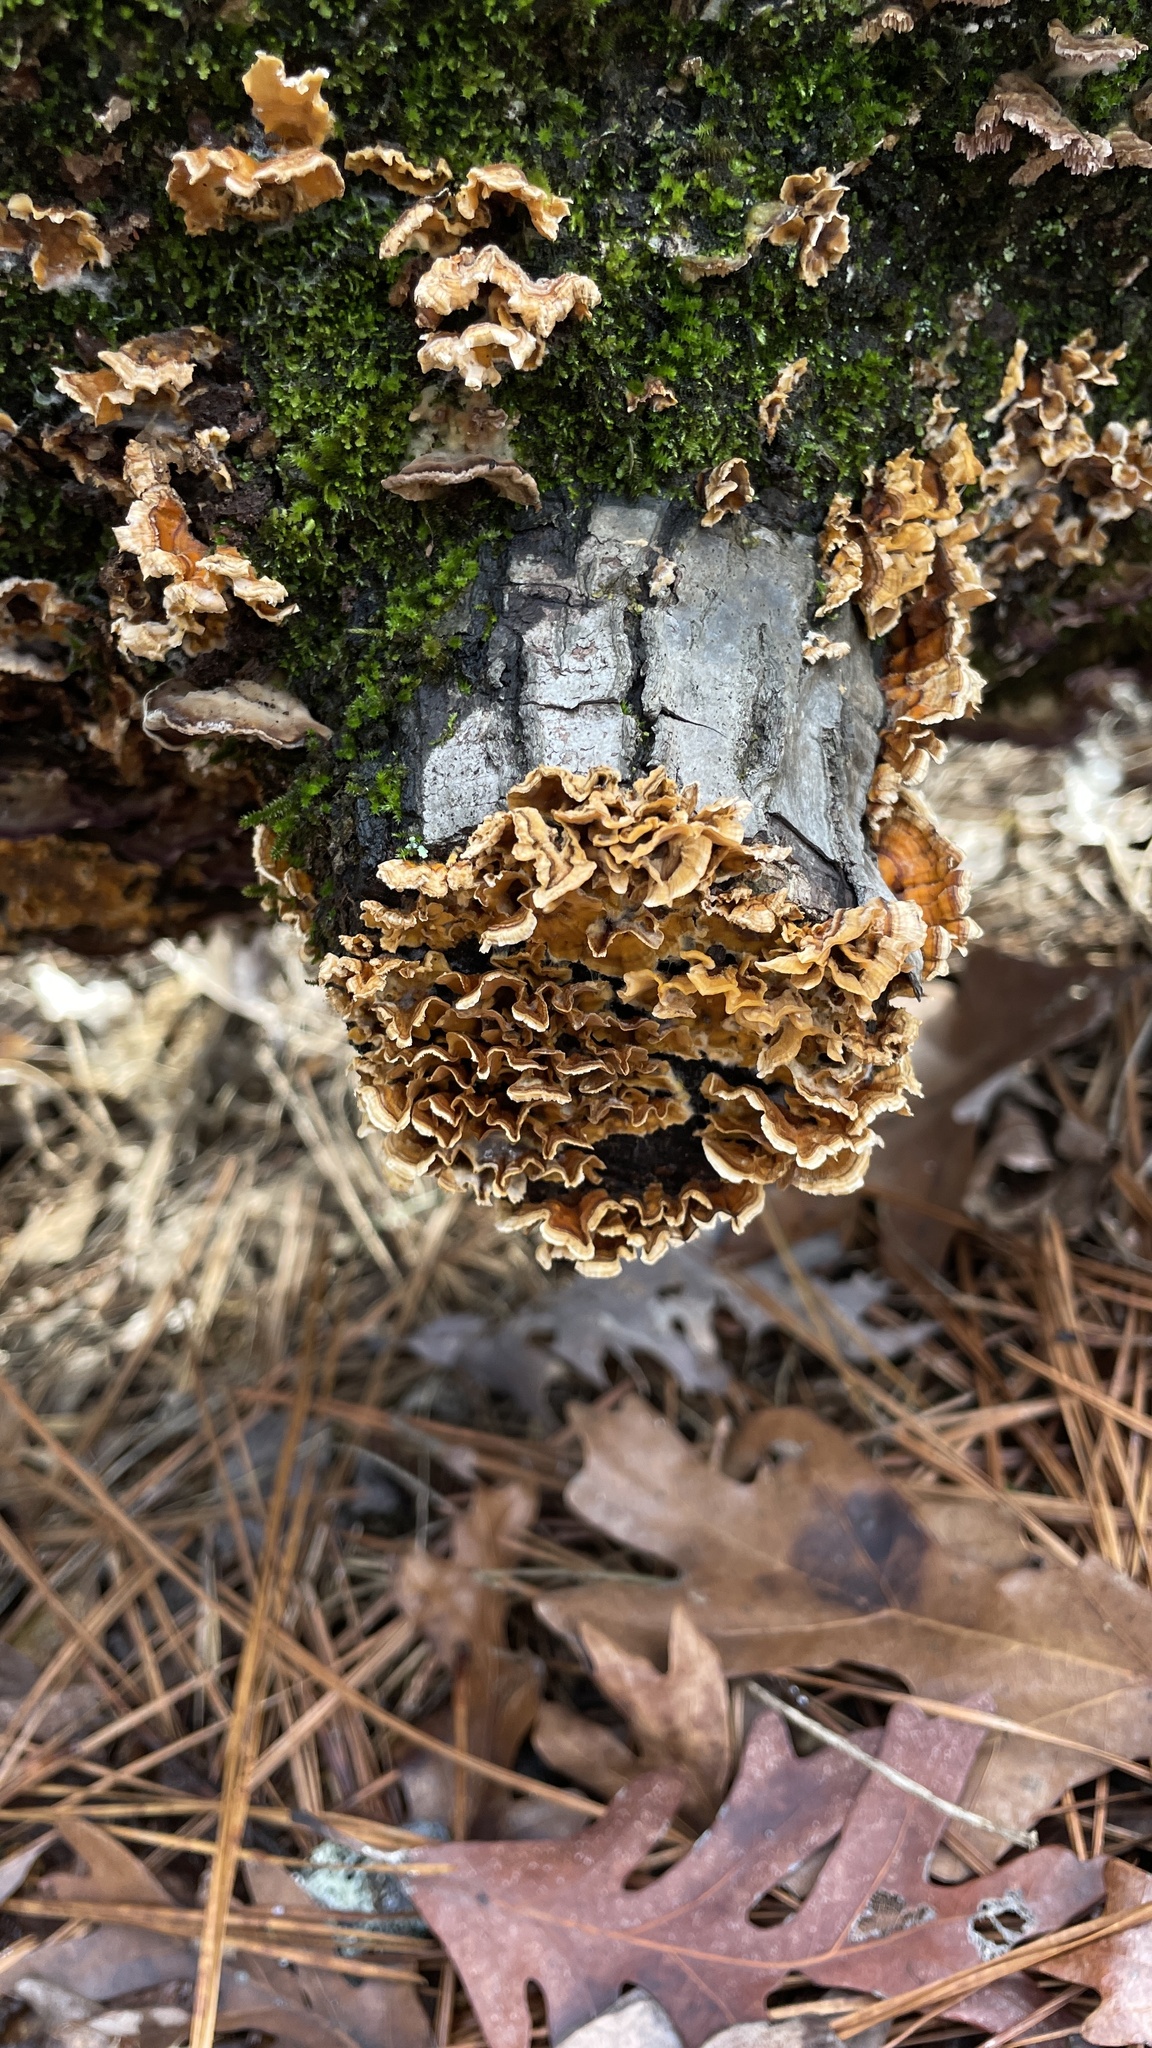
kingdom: Fungi
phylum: Basidiomycota
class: Agaricomycetes
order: Russulales
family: Stereaceae
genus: Stereum
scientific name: Stereum complicatum
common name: Crowded parchment
